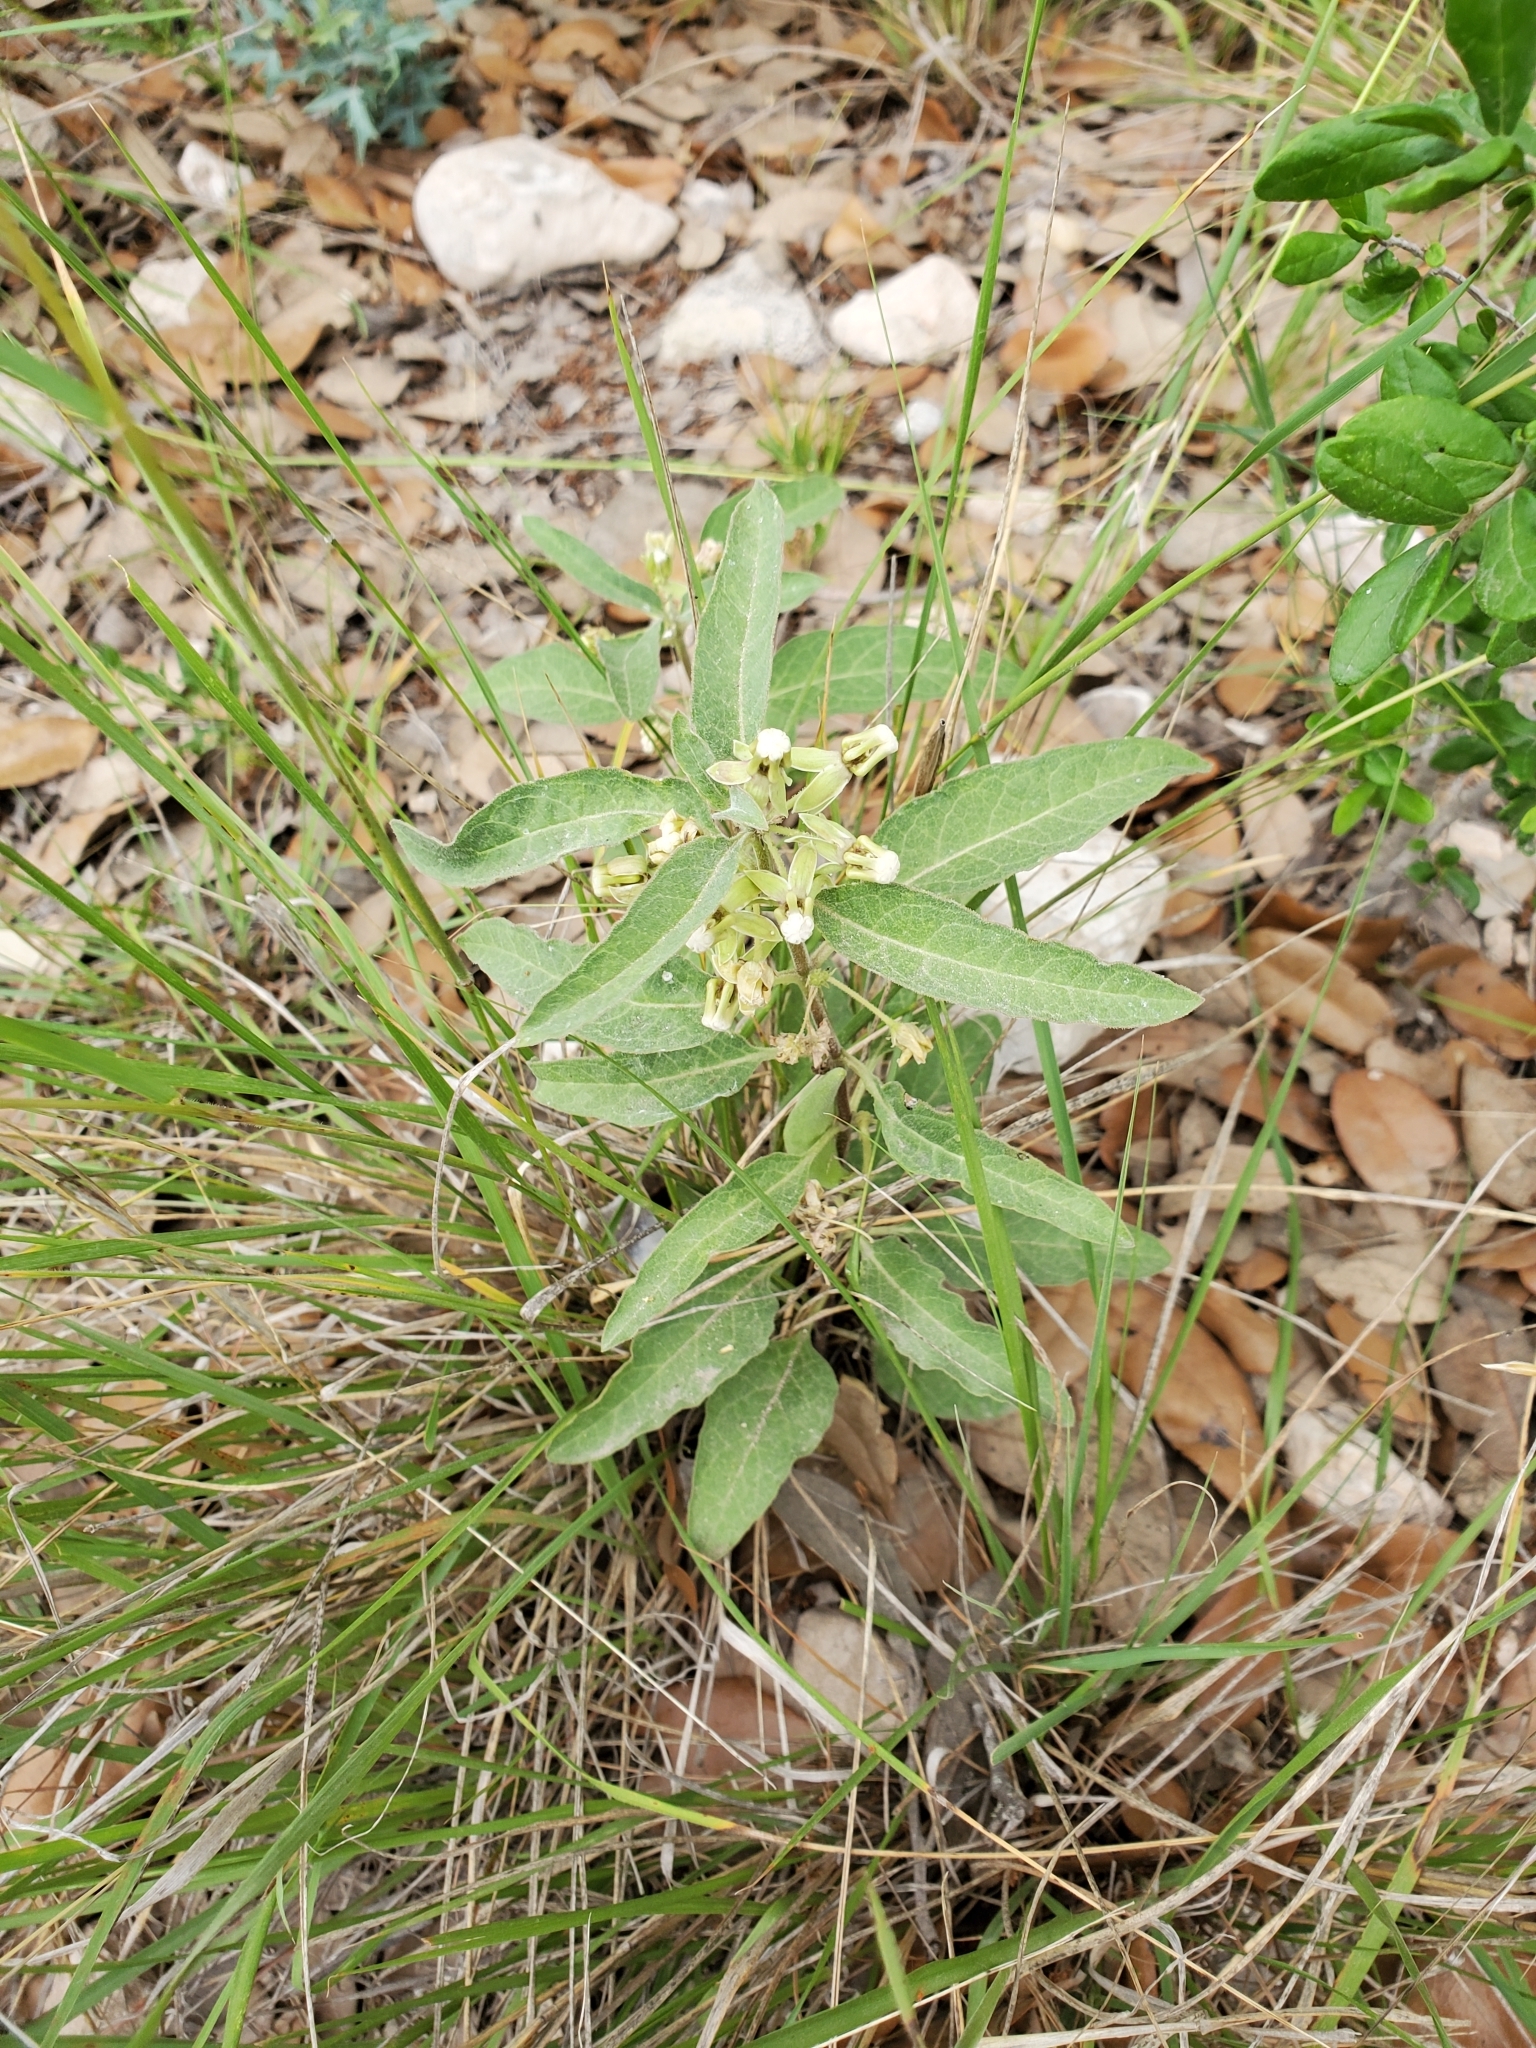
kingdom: Plantae
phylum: Tracheophyta
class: Magnoliopsida
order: Gentianales
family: Apocynaceae
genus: Asclepias
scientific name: Asclepias emoryi
